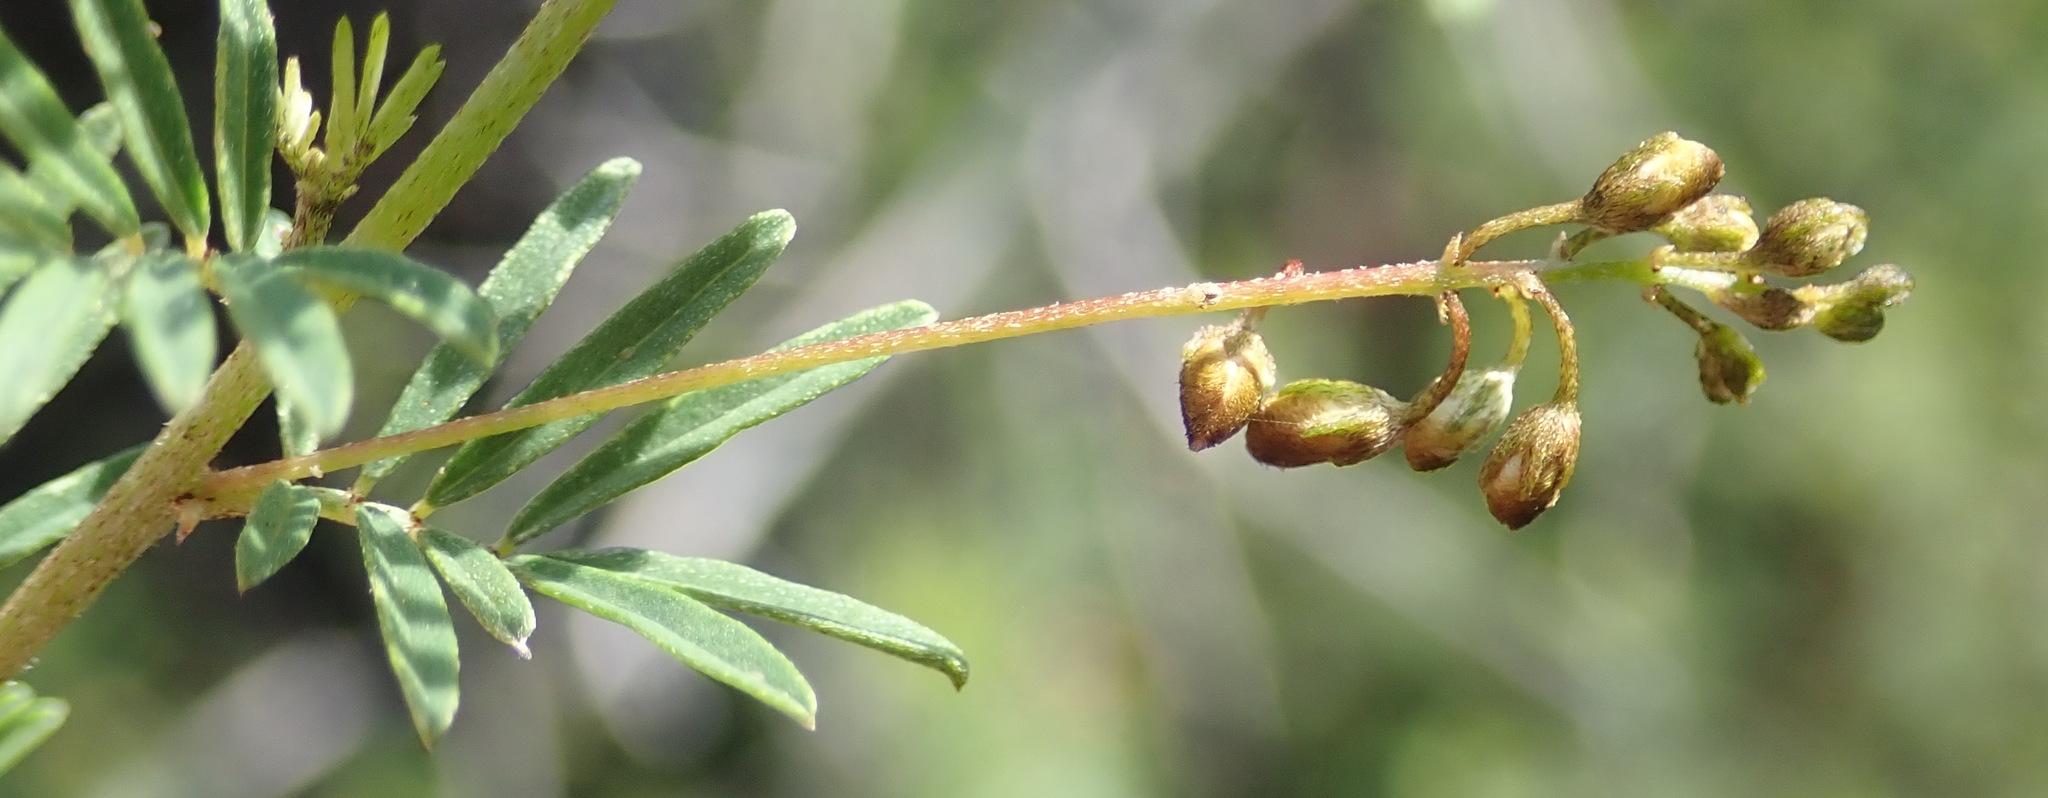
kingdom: Plantae
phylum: Tracheophyta
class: Magnoliopsida
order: Fabales
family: Fabaceae
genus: Indigofera
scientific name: Indigofera verrucosa
